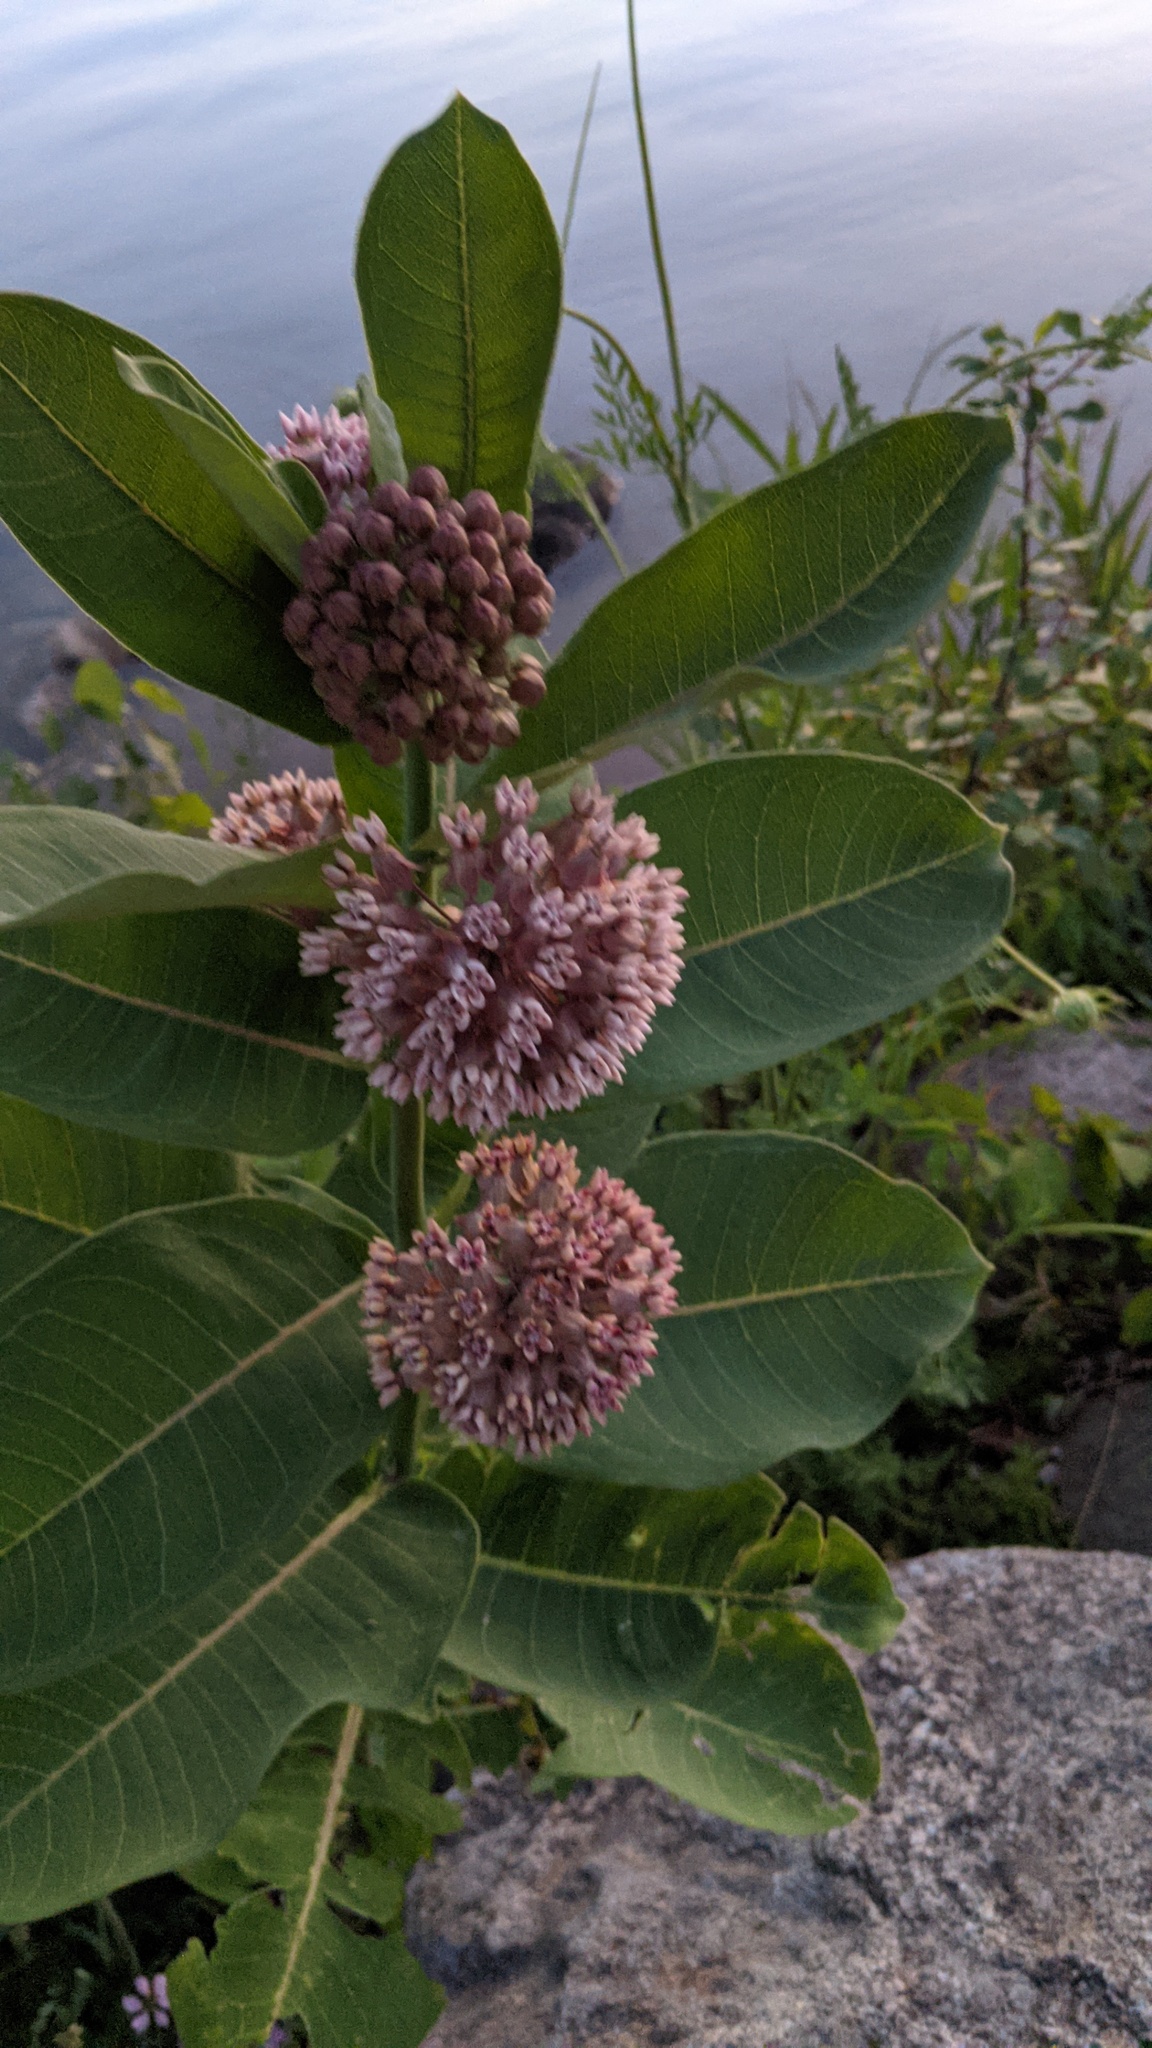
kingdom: Plantae
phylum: Tracheophyta
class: Magnoliopsida
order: Gentianales
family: Apocynaceae
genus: Asclepias
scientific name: Asclepias syriaca
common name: Common milkweed
